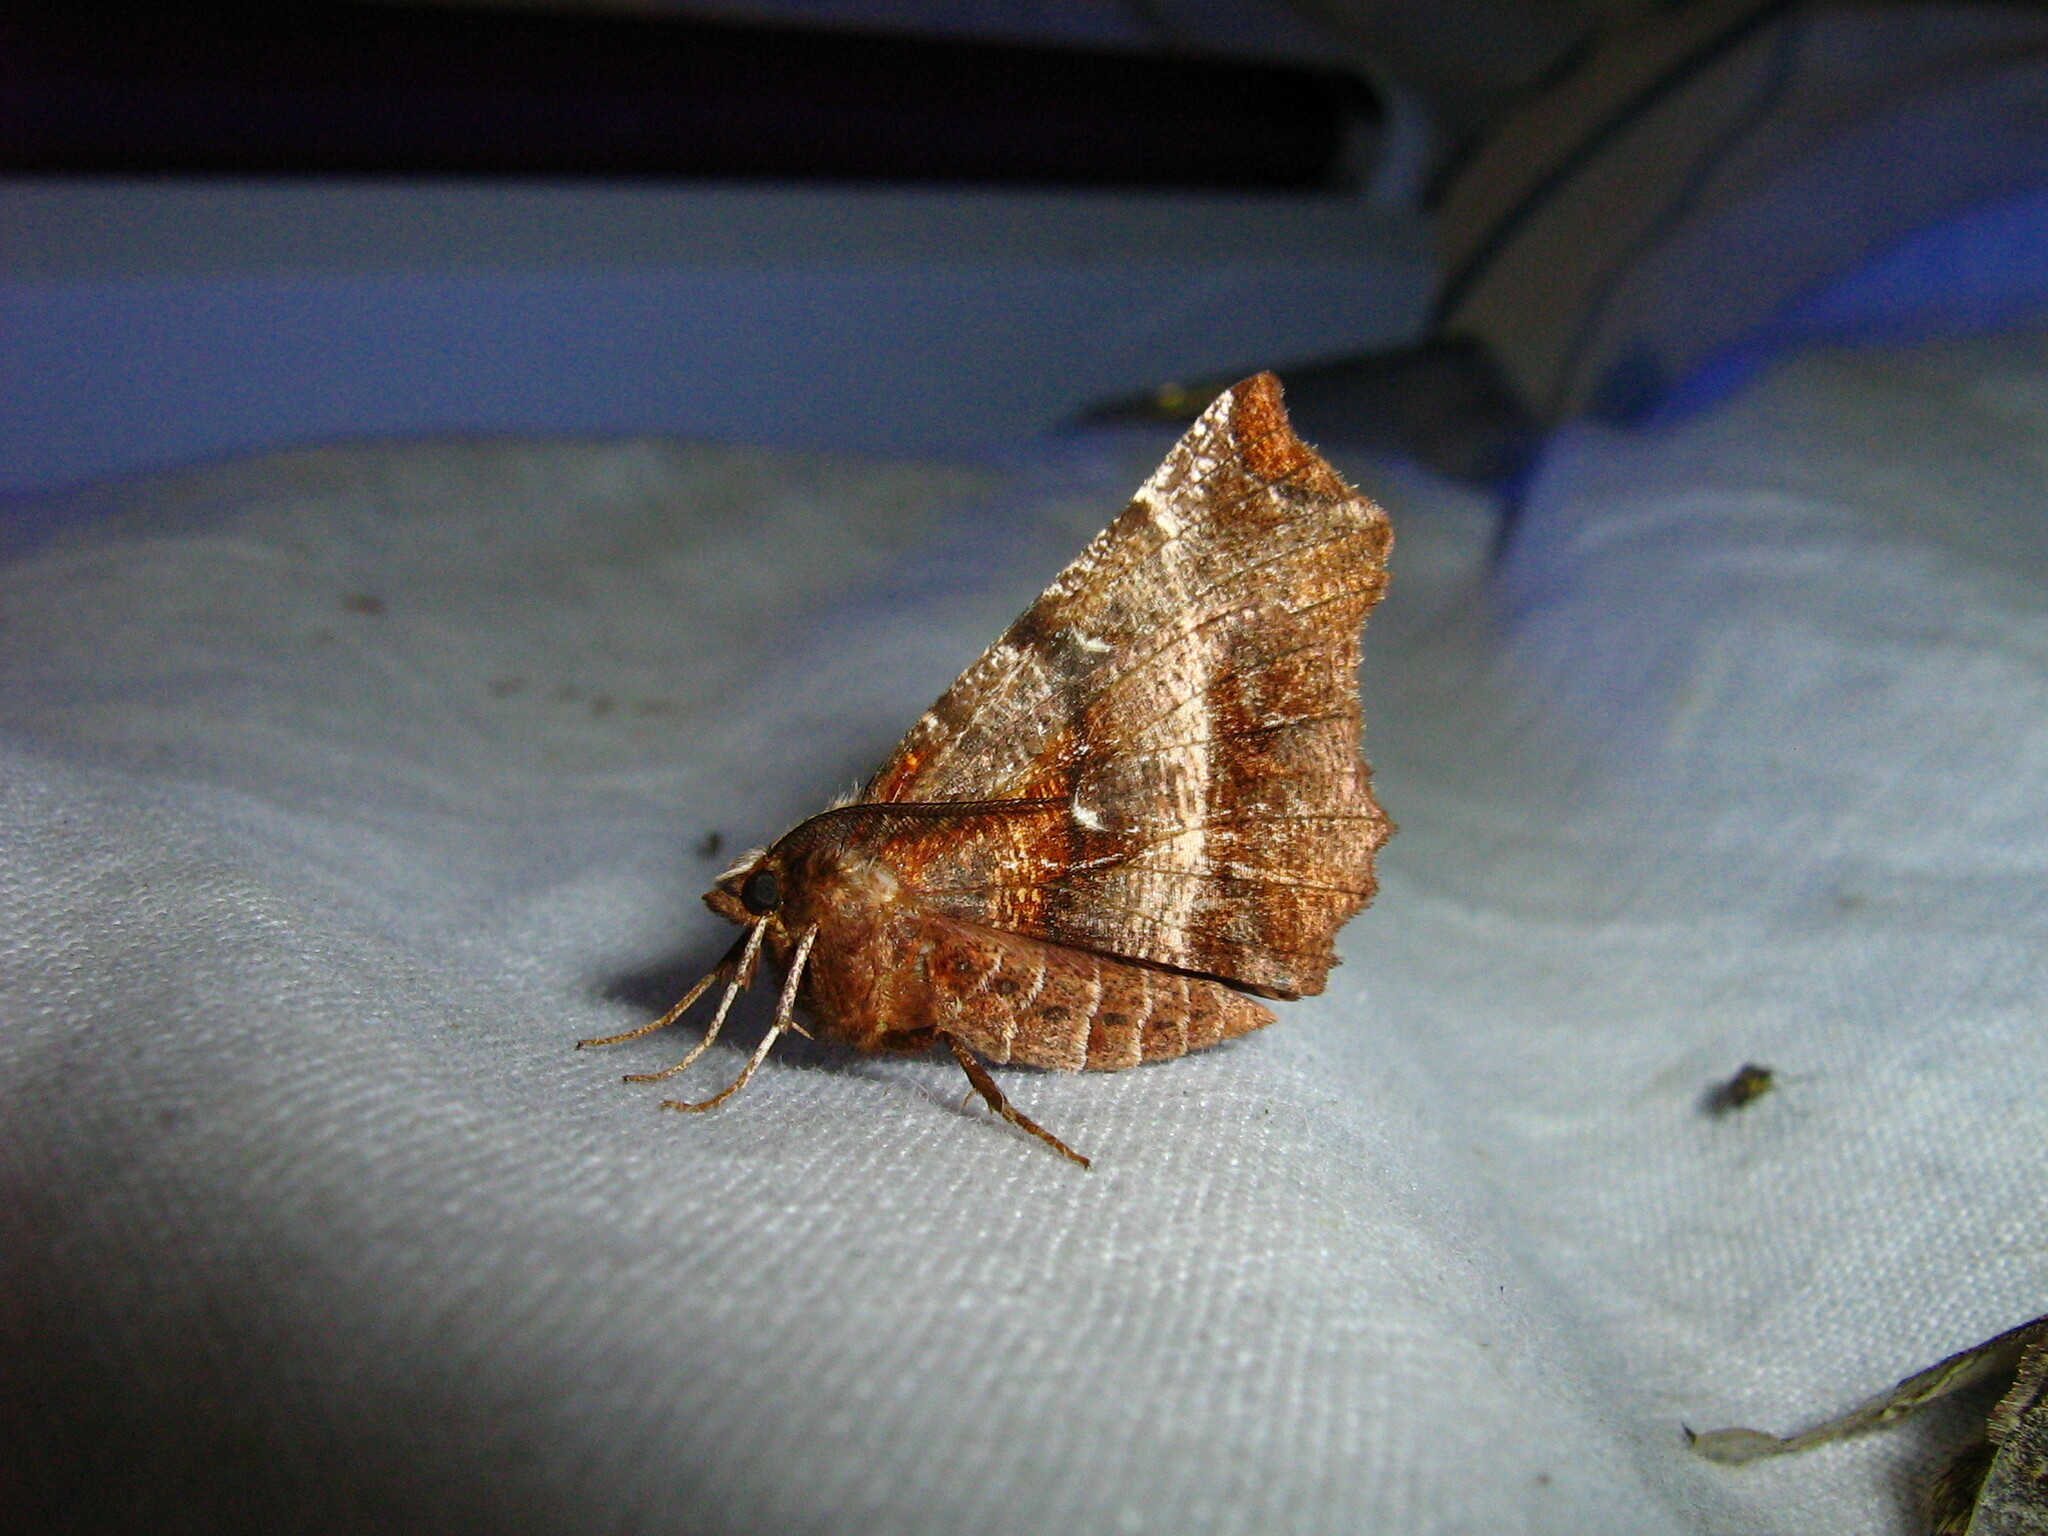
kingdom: Animalia
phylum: Arthropoda
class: Insecta
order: Lepidoptera
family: Geometridae
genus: Selenia
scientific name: Selenia dentaria
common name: Early thorn
